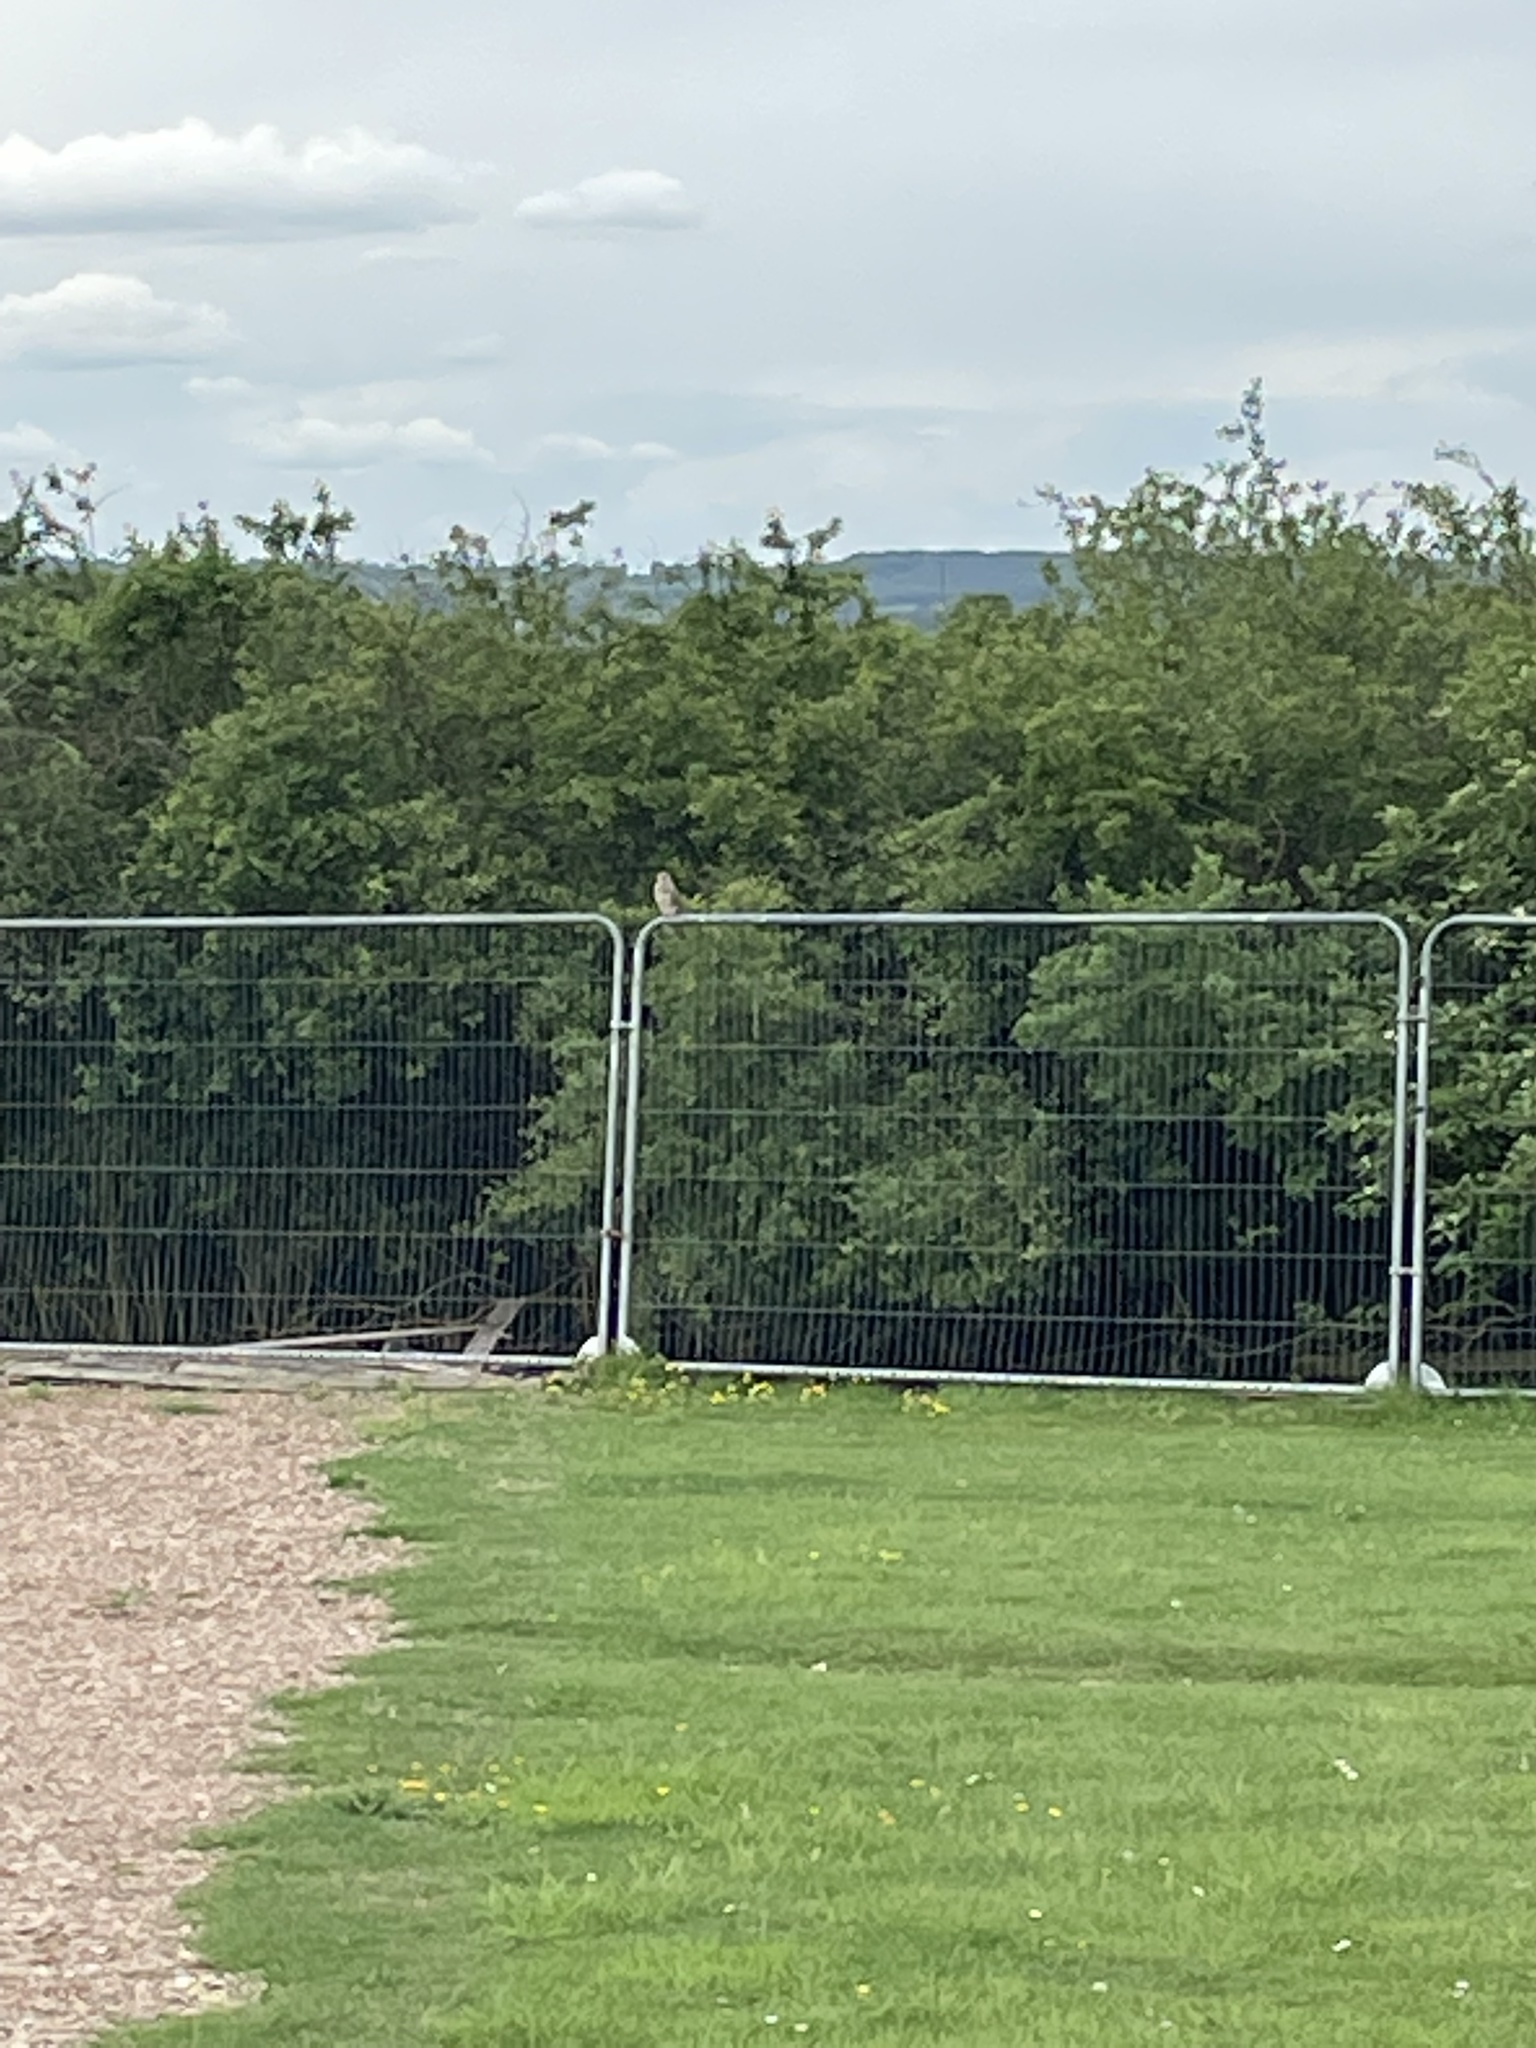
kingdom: Animalia
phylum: Chordata
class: Aves
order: Falconiformes
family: Falconidae
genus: Falco
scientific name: Falco tinnunculus
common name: Common kestrel
